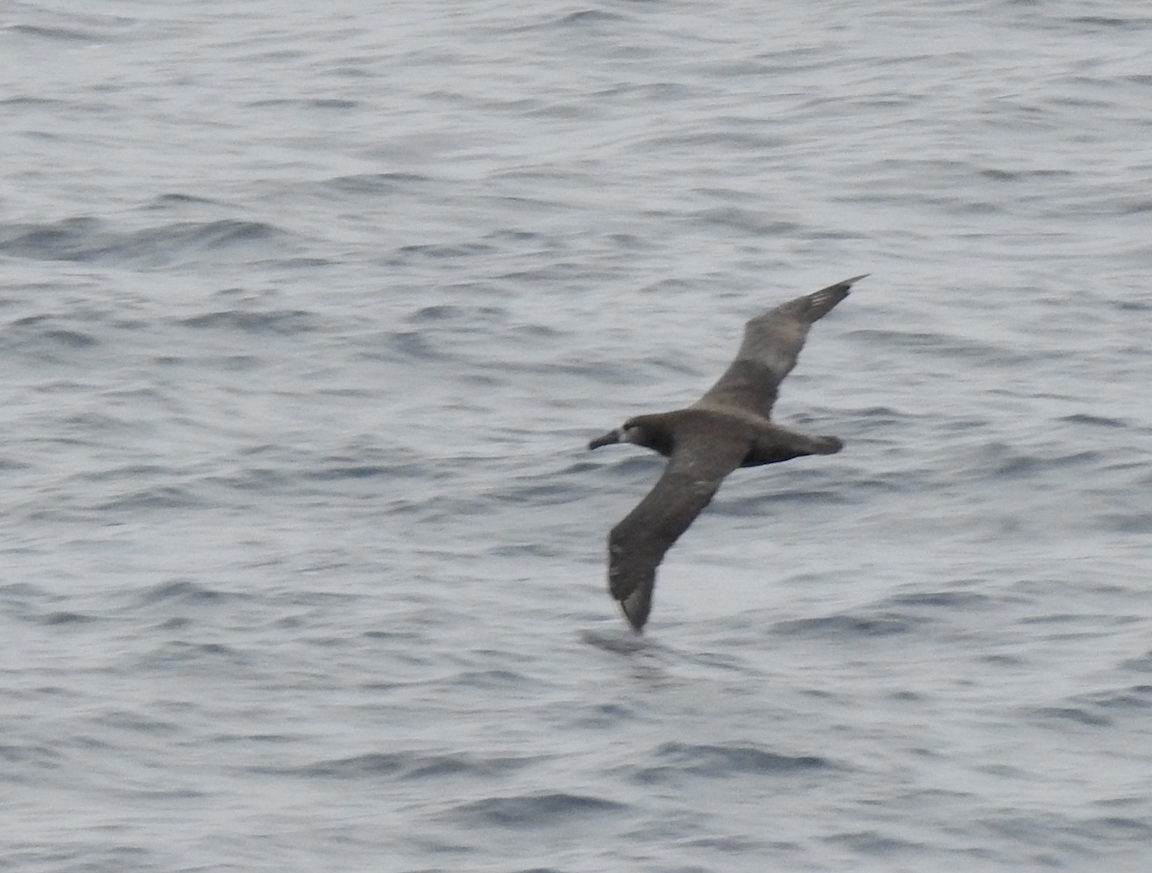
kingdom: Animalia
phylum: Chordata
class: Aves
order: Procellariiformes
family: Diomedeidae
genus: Phoebastria
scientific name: Phoebastria nigripes
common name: Black-footed albatross
